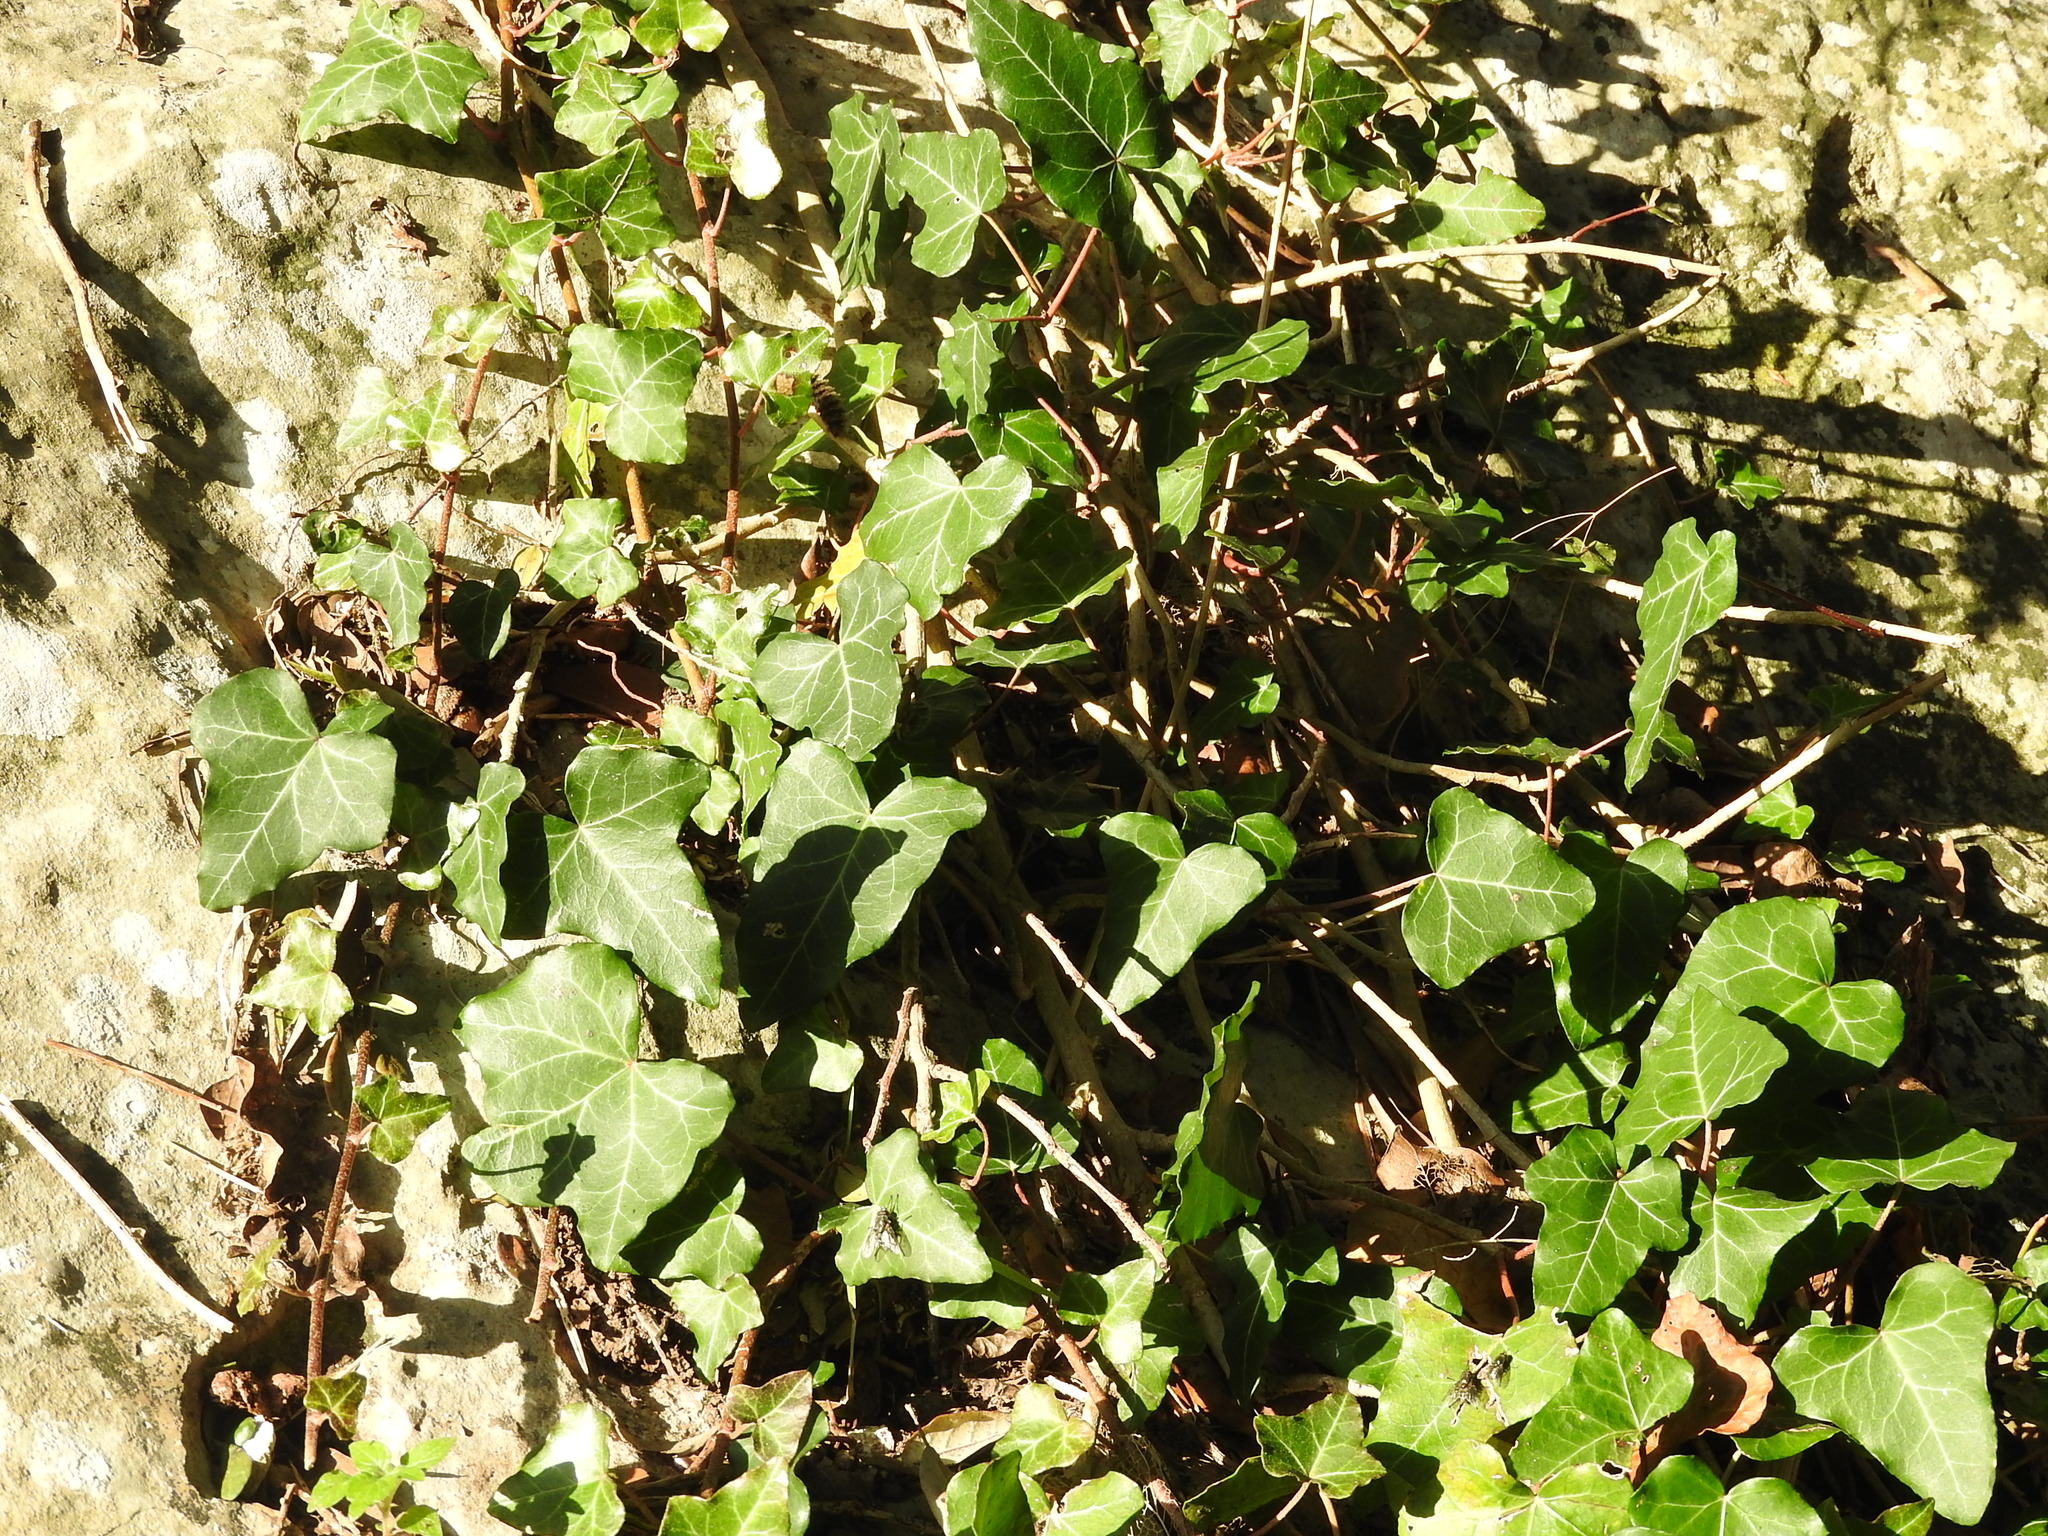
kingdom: Plantae
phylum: Tracheophyta
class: Magnoliopsida
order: Apiales
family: Araliaceae
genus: Hedera
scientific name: Hedera helix
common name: Ivy
